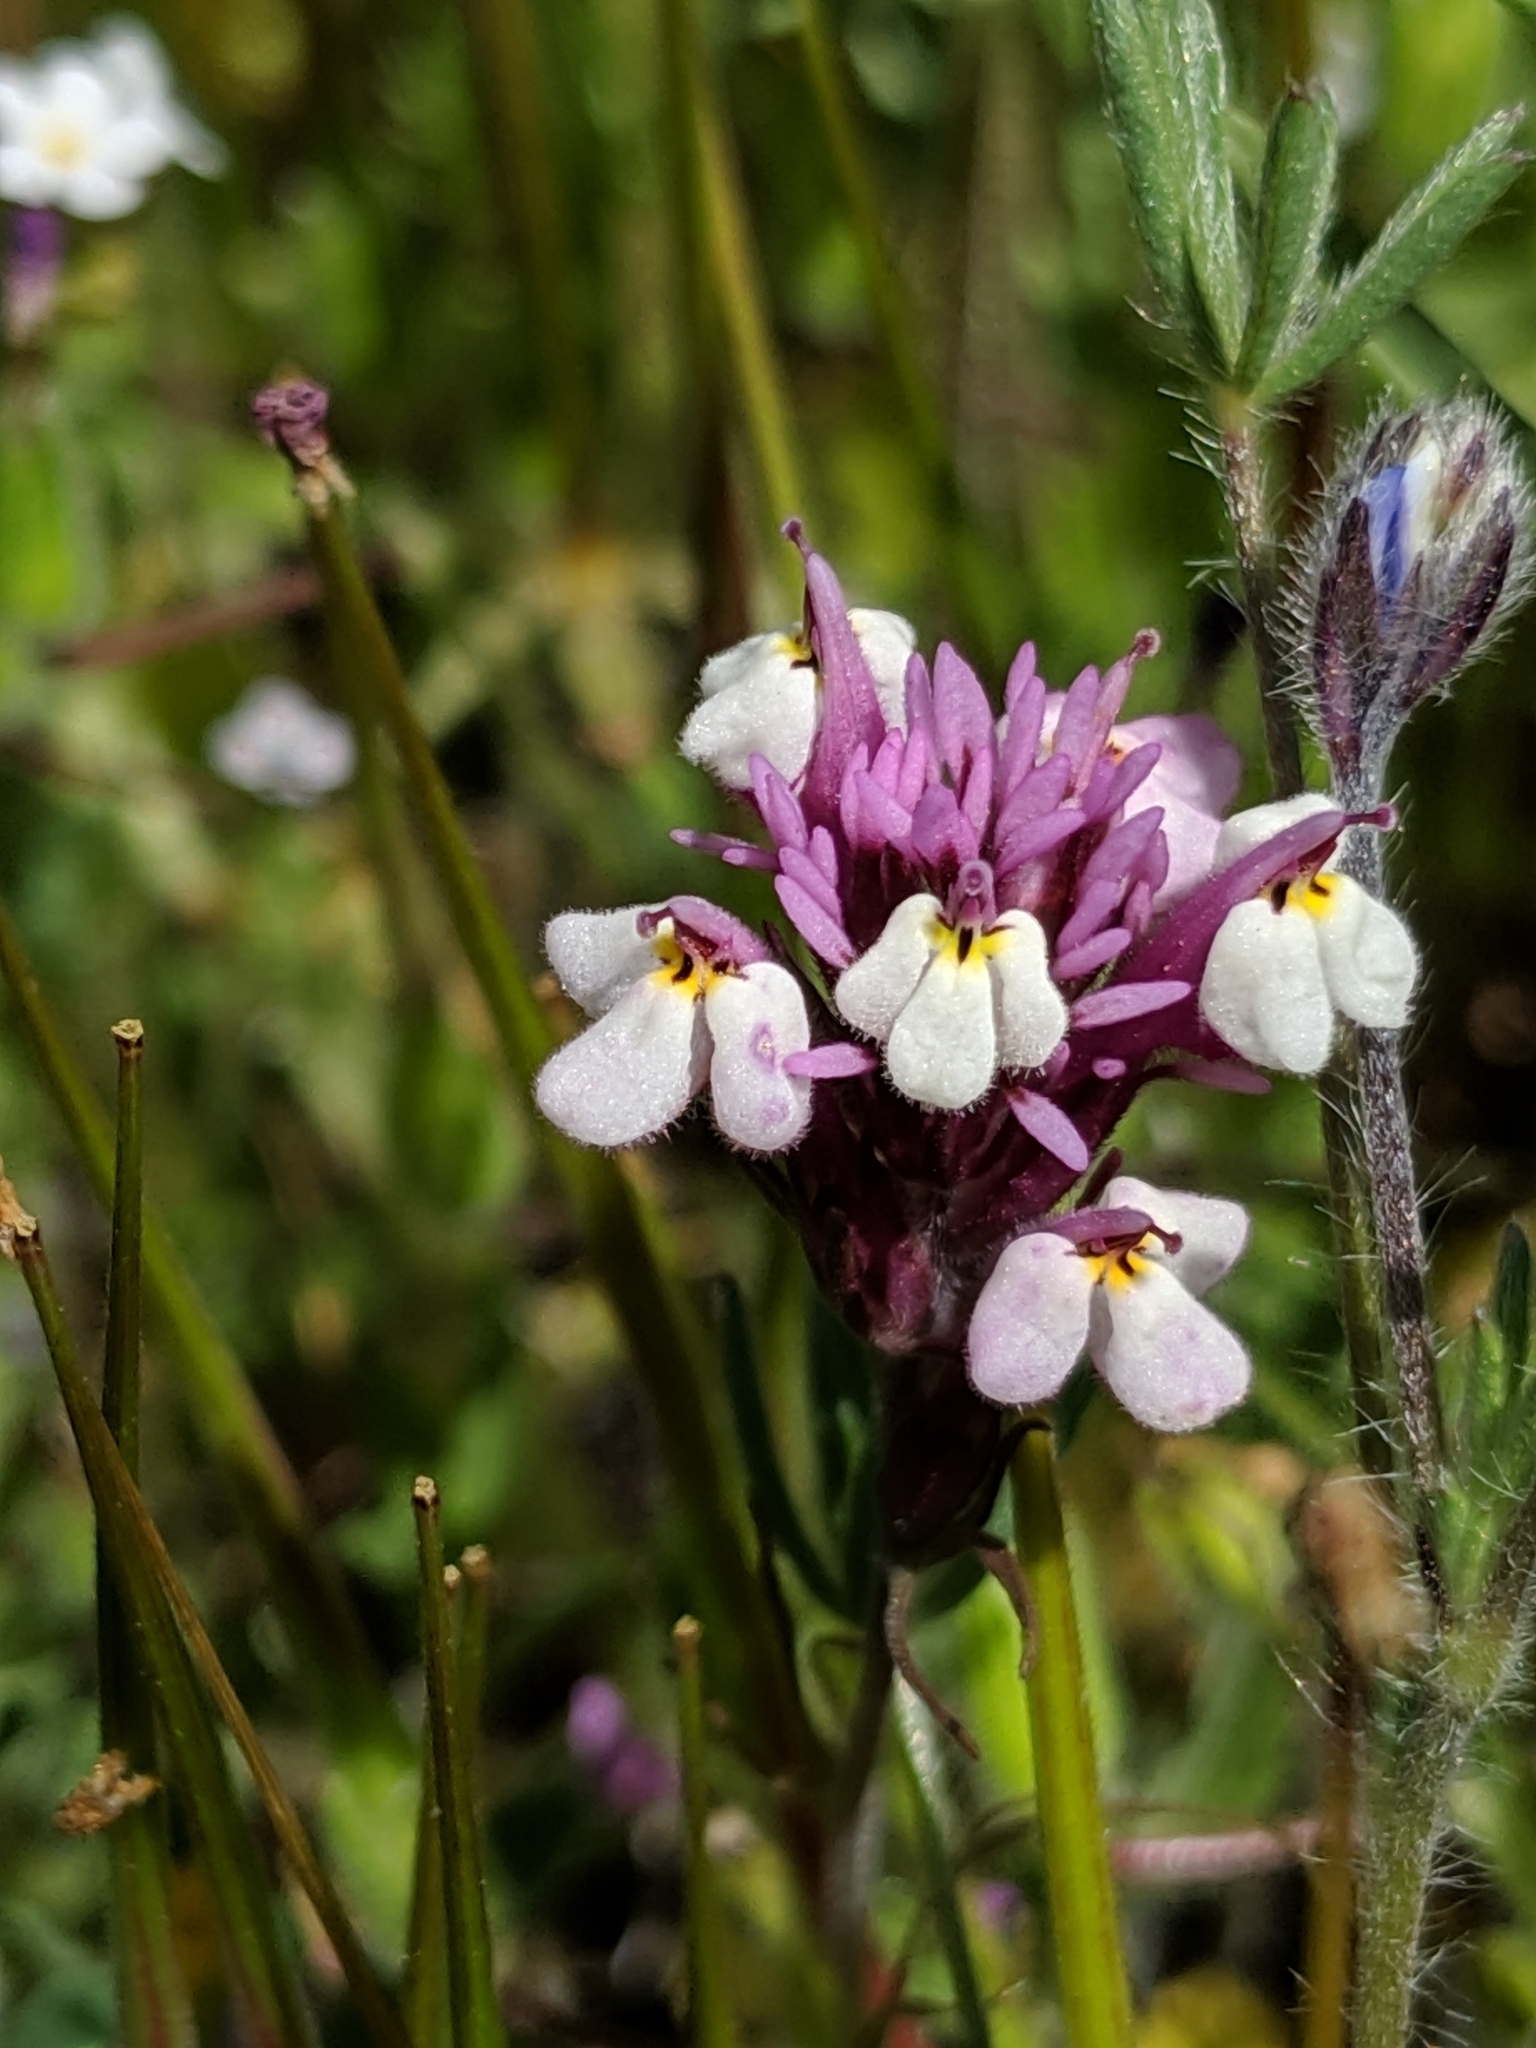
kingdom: Plantae
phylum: Tracheophyta
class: Magnoliopsida
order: Lamiales
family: Orobanchaceae
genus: Castilleja
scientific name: Castilleja densiflora
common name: Dense-flower indian paintbrush
